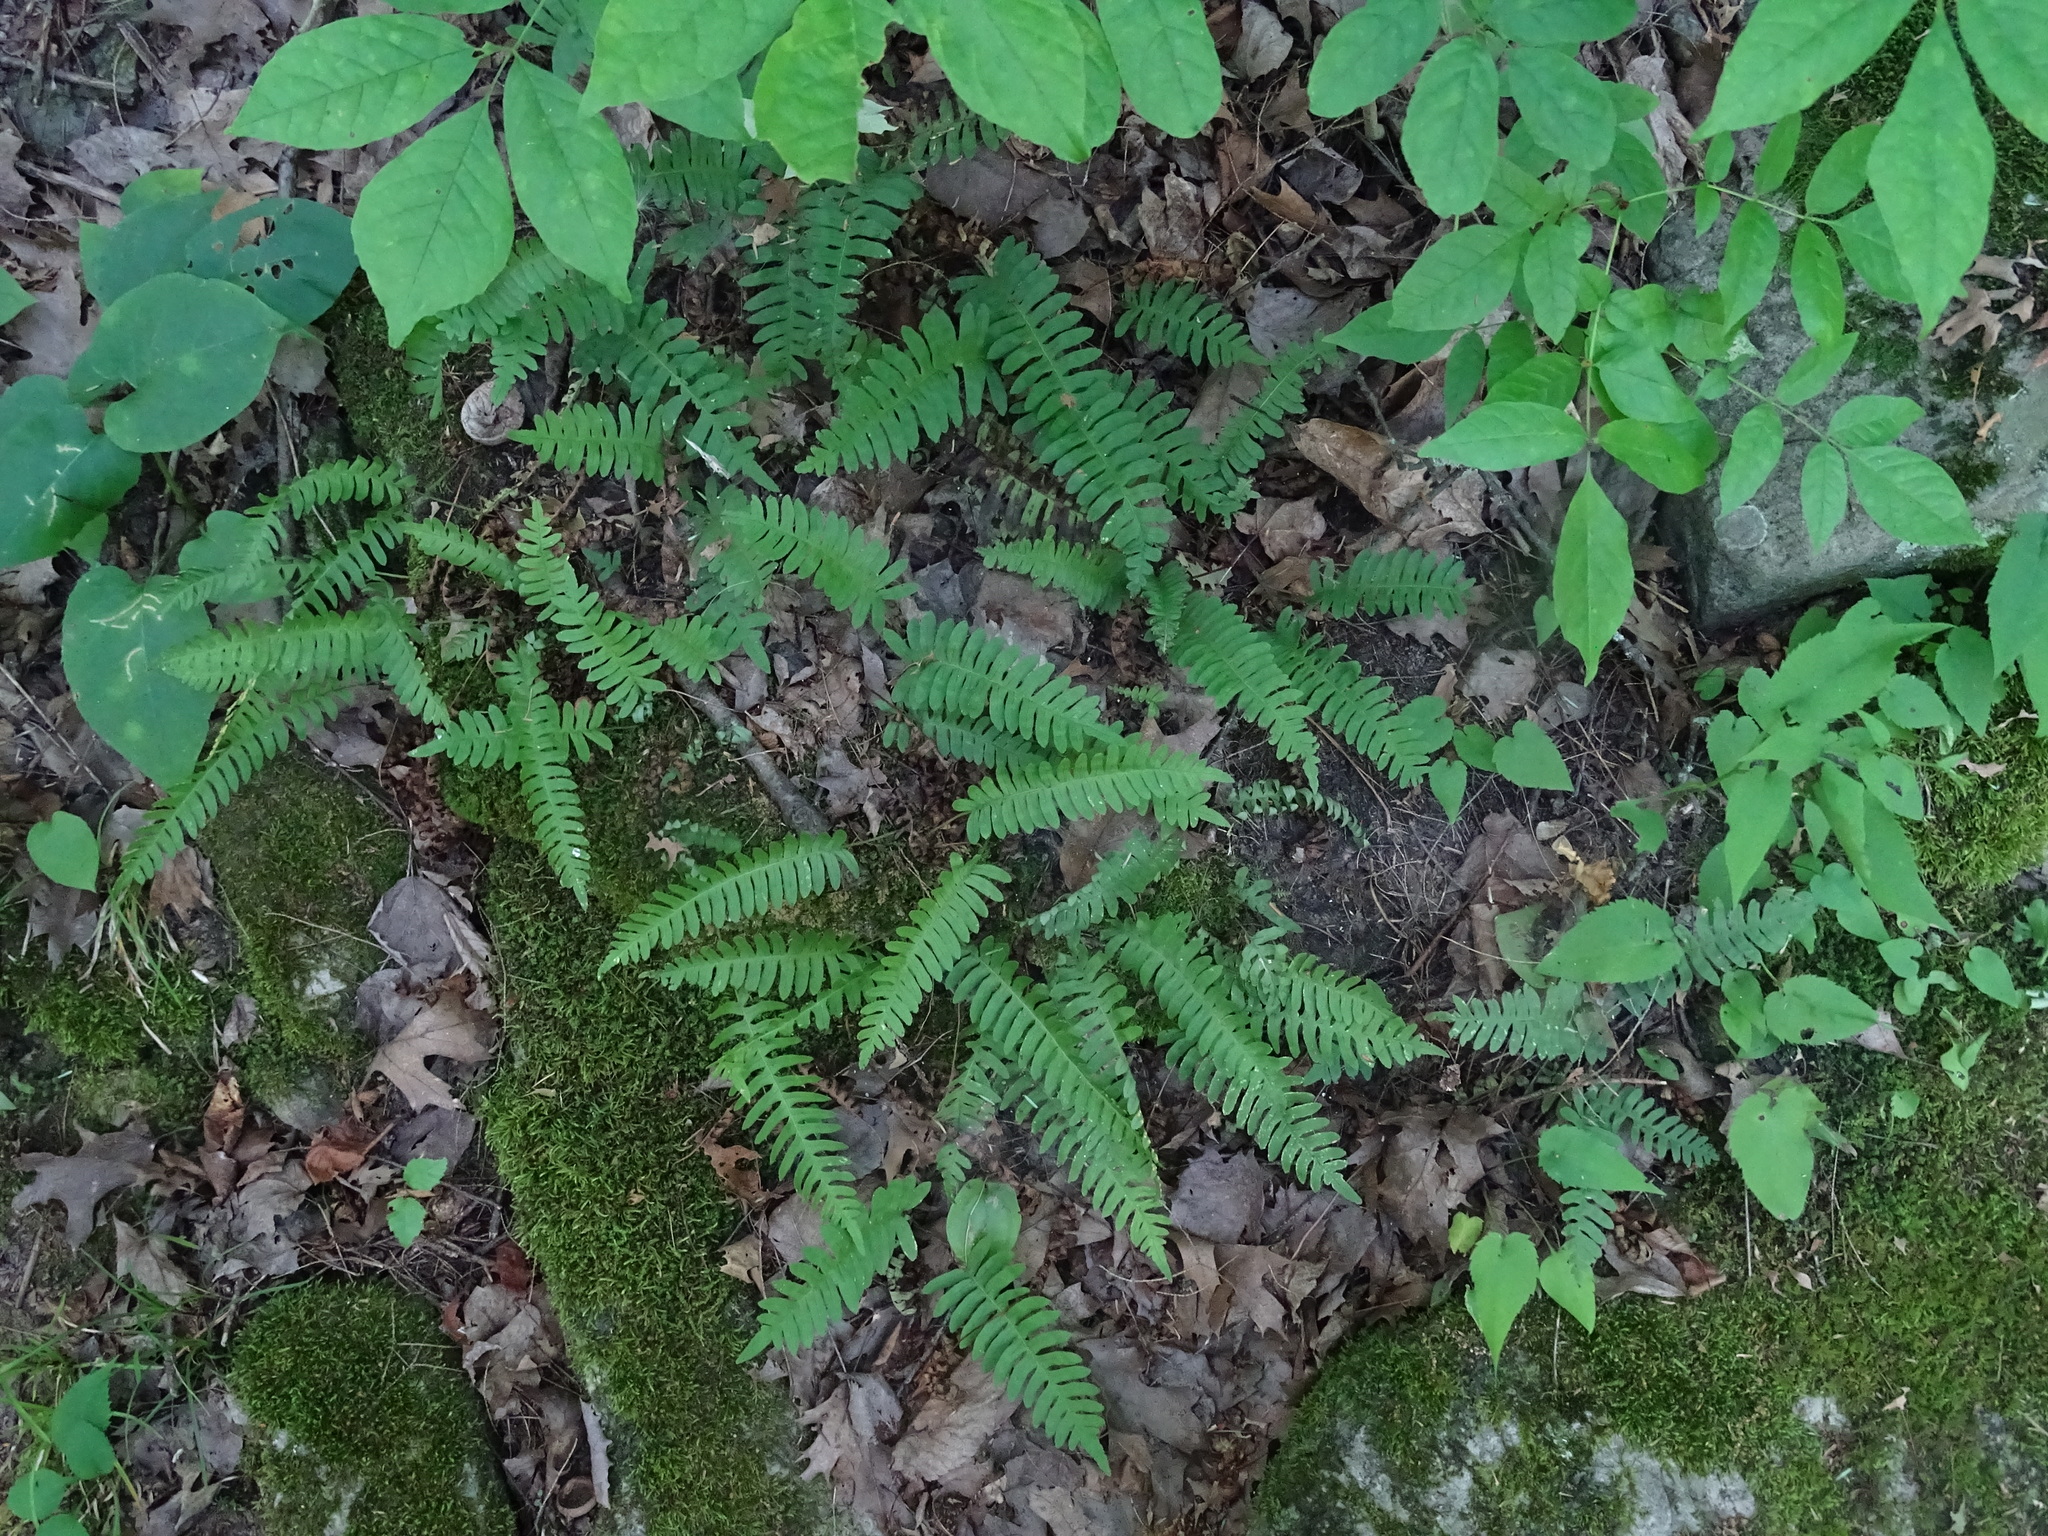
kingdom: Plantae
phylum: Tracheophyta
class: Polypodiopsida
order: Polypodiales
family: Polypodiaceae
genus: Polypodium
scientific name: Polypodium virginianum
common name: American wall fern
